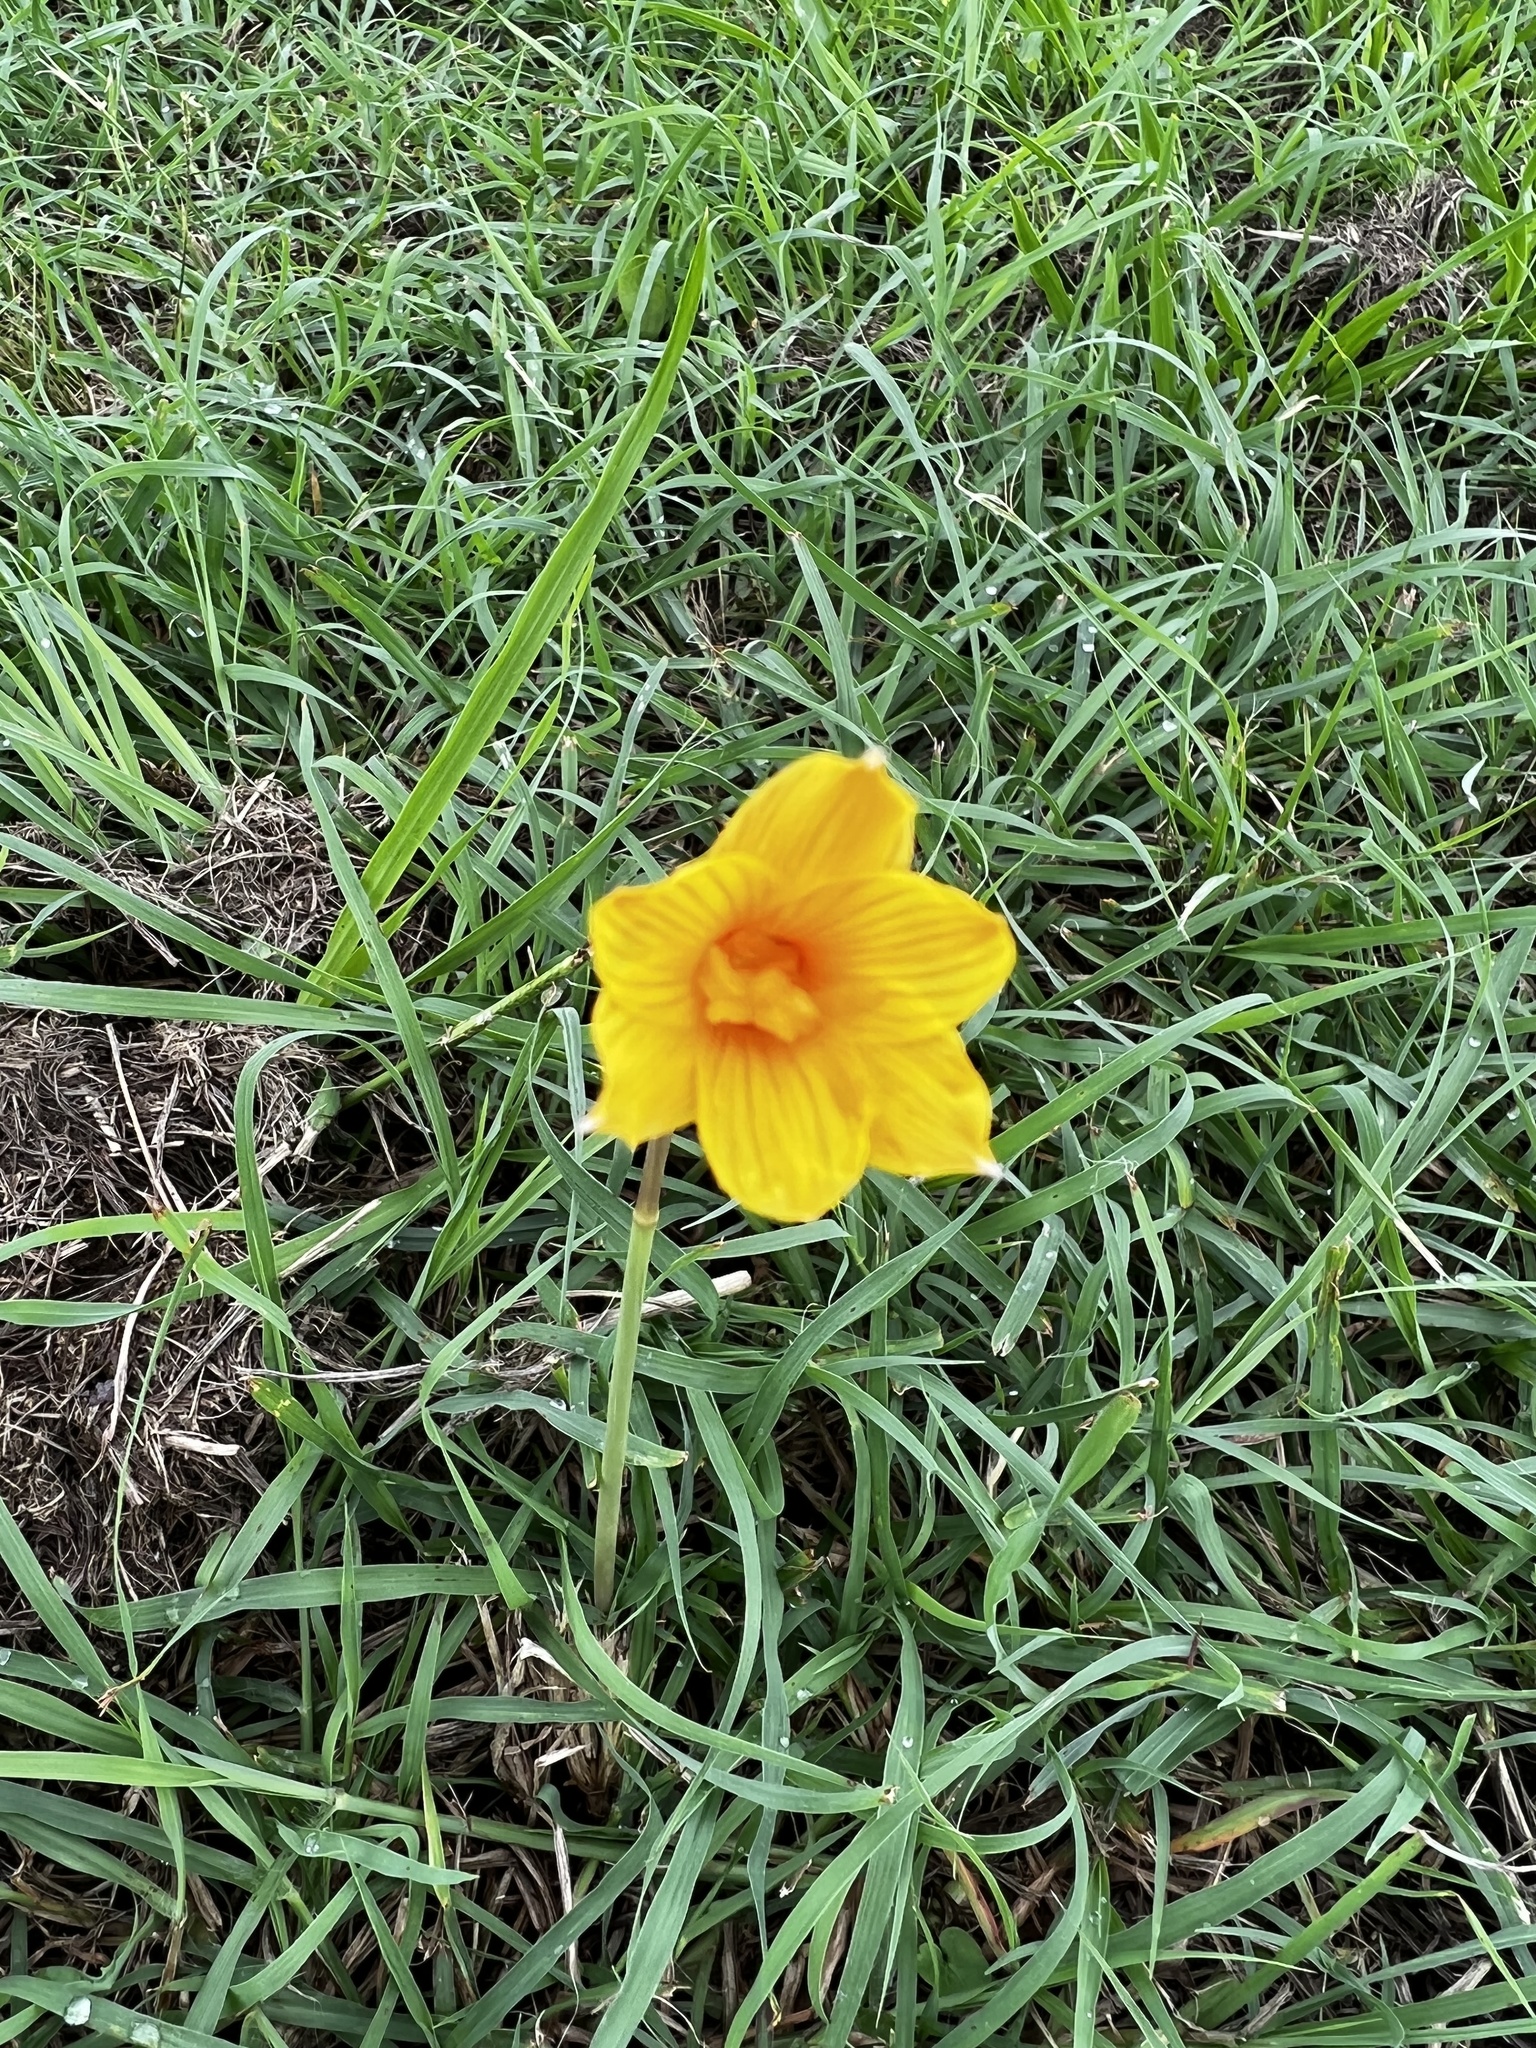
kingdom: Plantae
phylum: Tracheophyta
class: Liliopsida
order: Asparagales
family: Amaryllidaceae
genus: Zephyranthes
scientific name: Zephyranthes tubispatha
